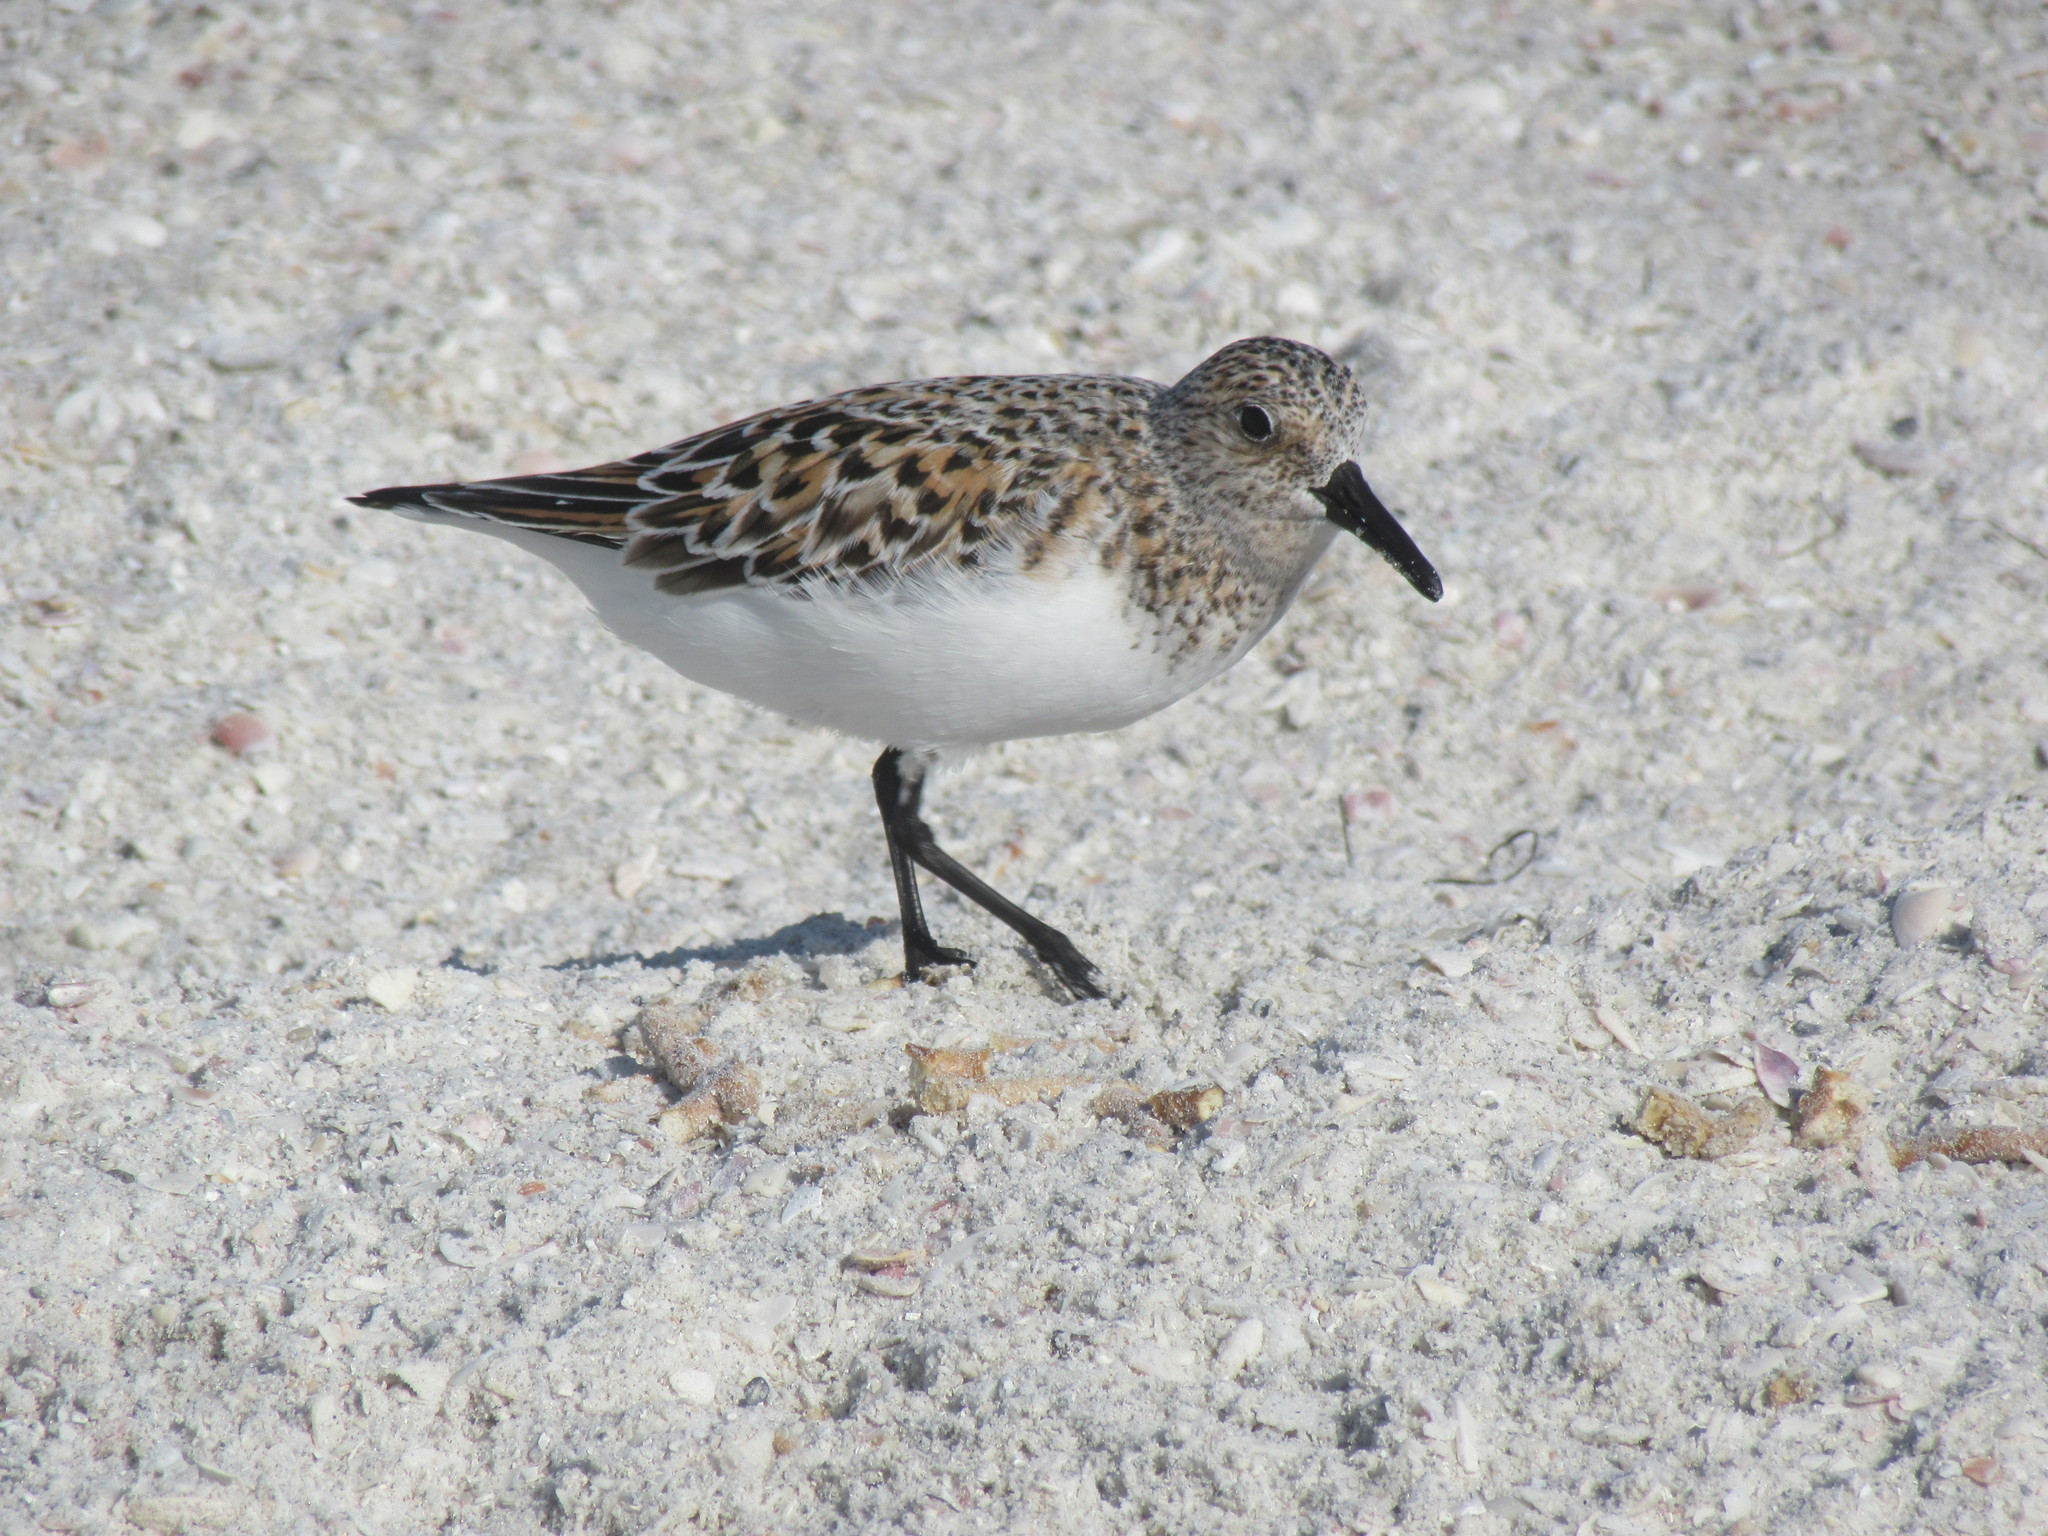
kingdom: Animalia
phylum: Chordata
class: Aves
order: Charadriiformes
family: Scolopacidae
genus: Calidris
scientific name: Calidris alba
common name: Sanderling
